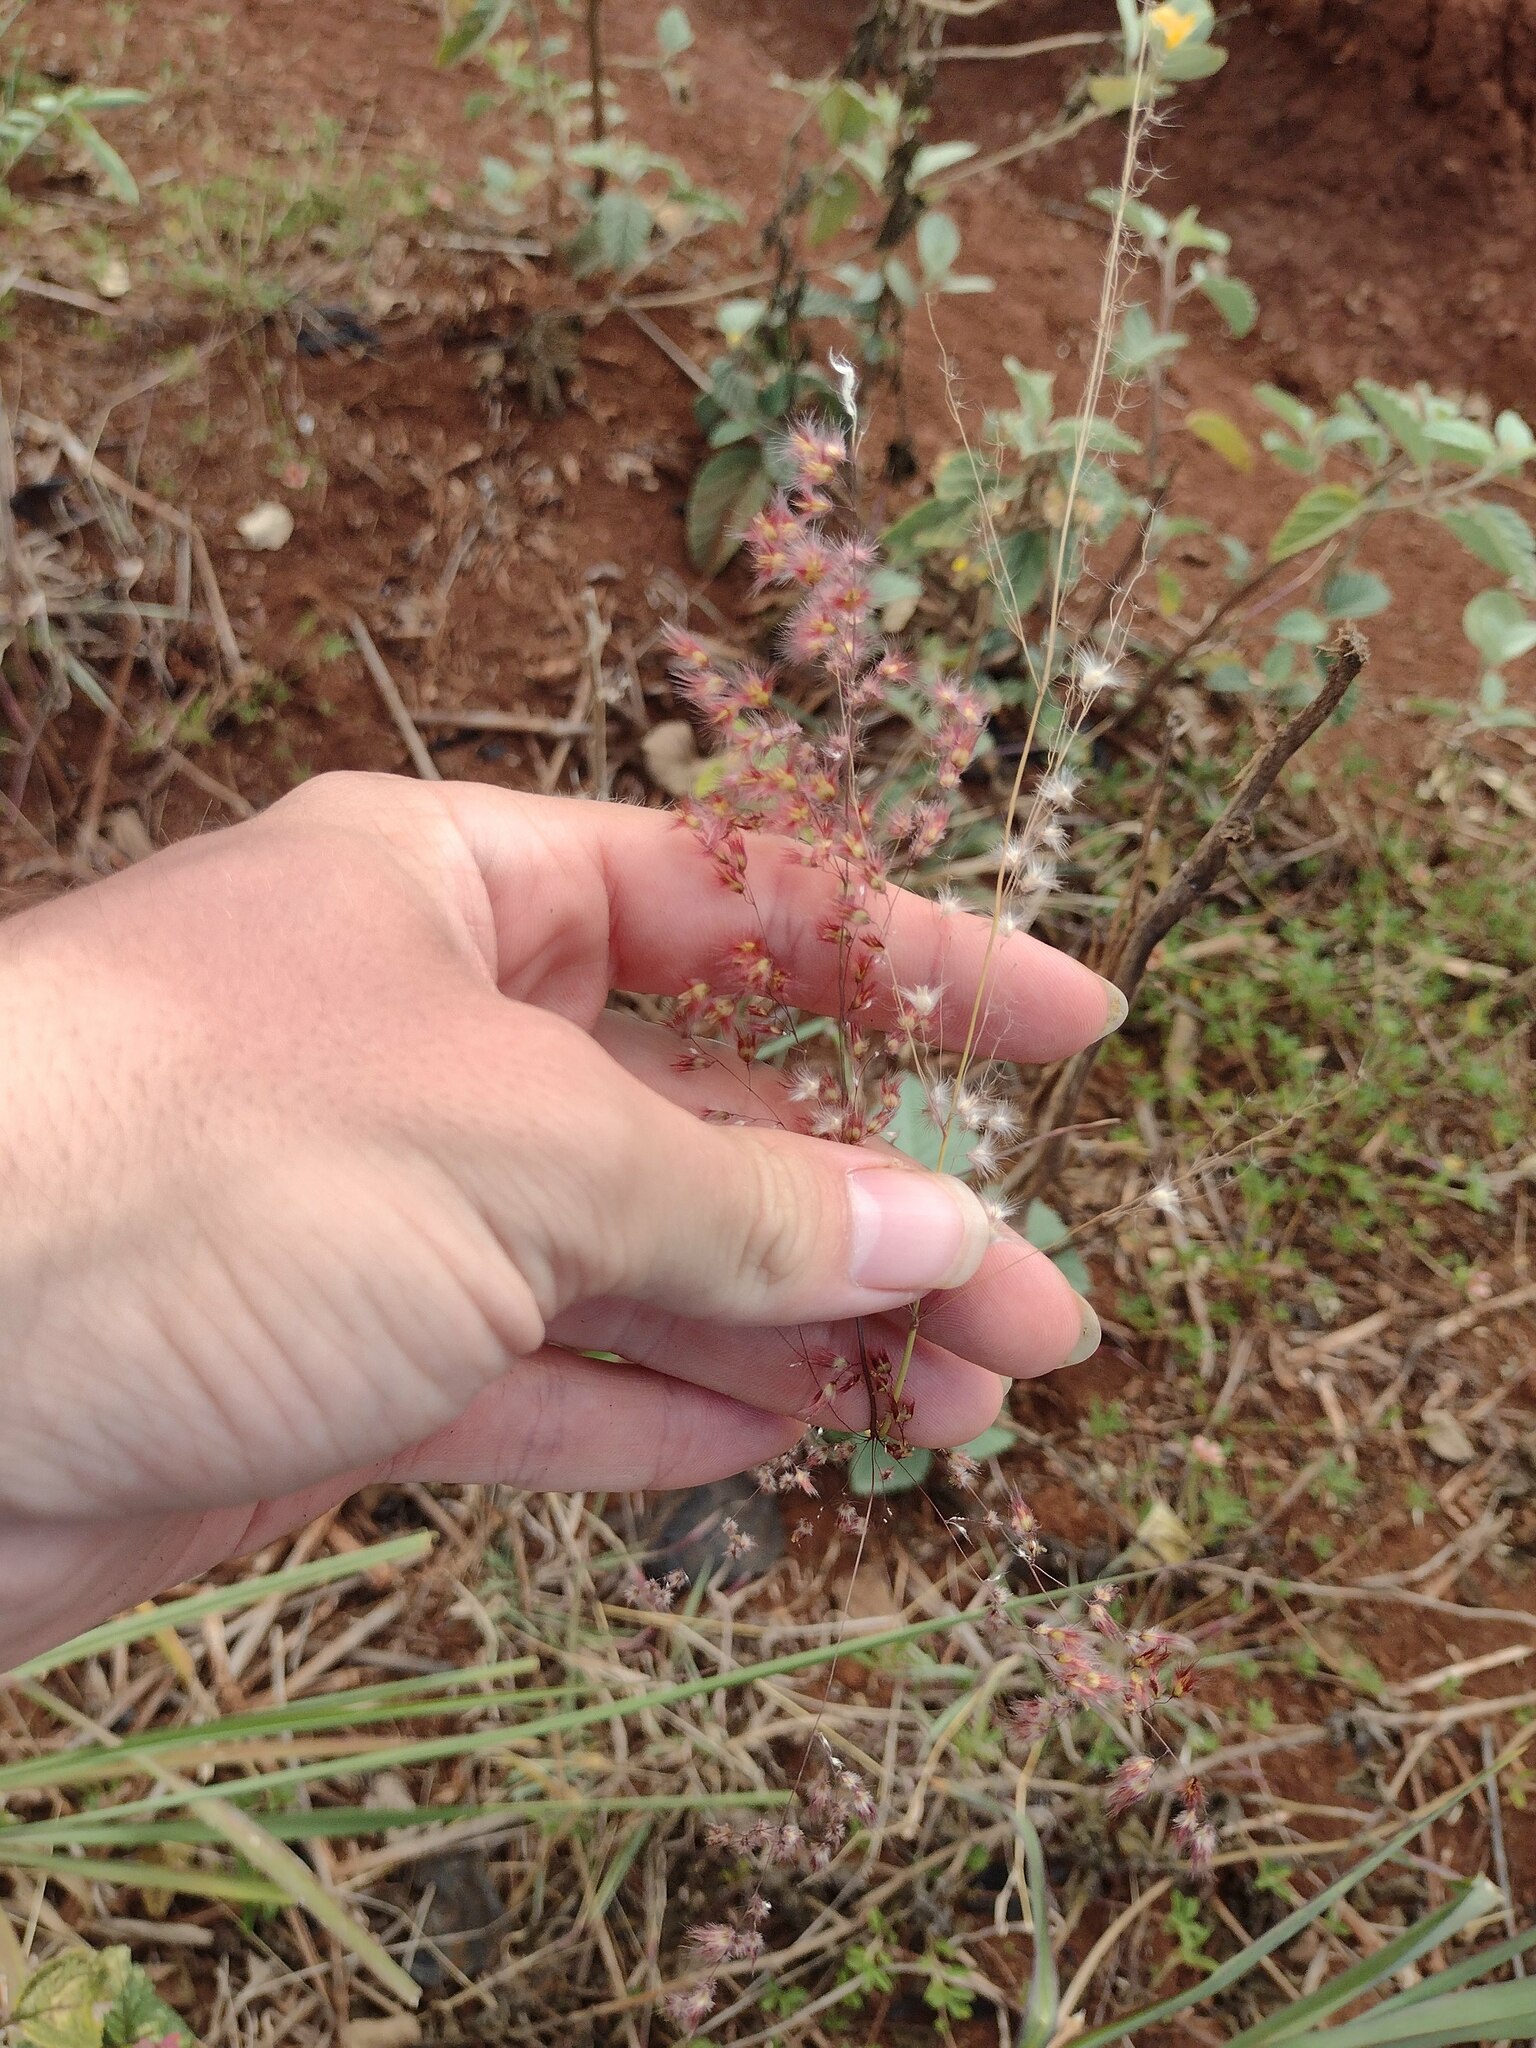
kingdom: Plantae
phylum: Tracheophyta
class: Liliopsida
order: Poales
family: Poaceae
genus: Melinis
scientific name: Melinis repens
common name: Rose natal grass
